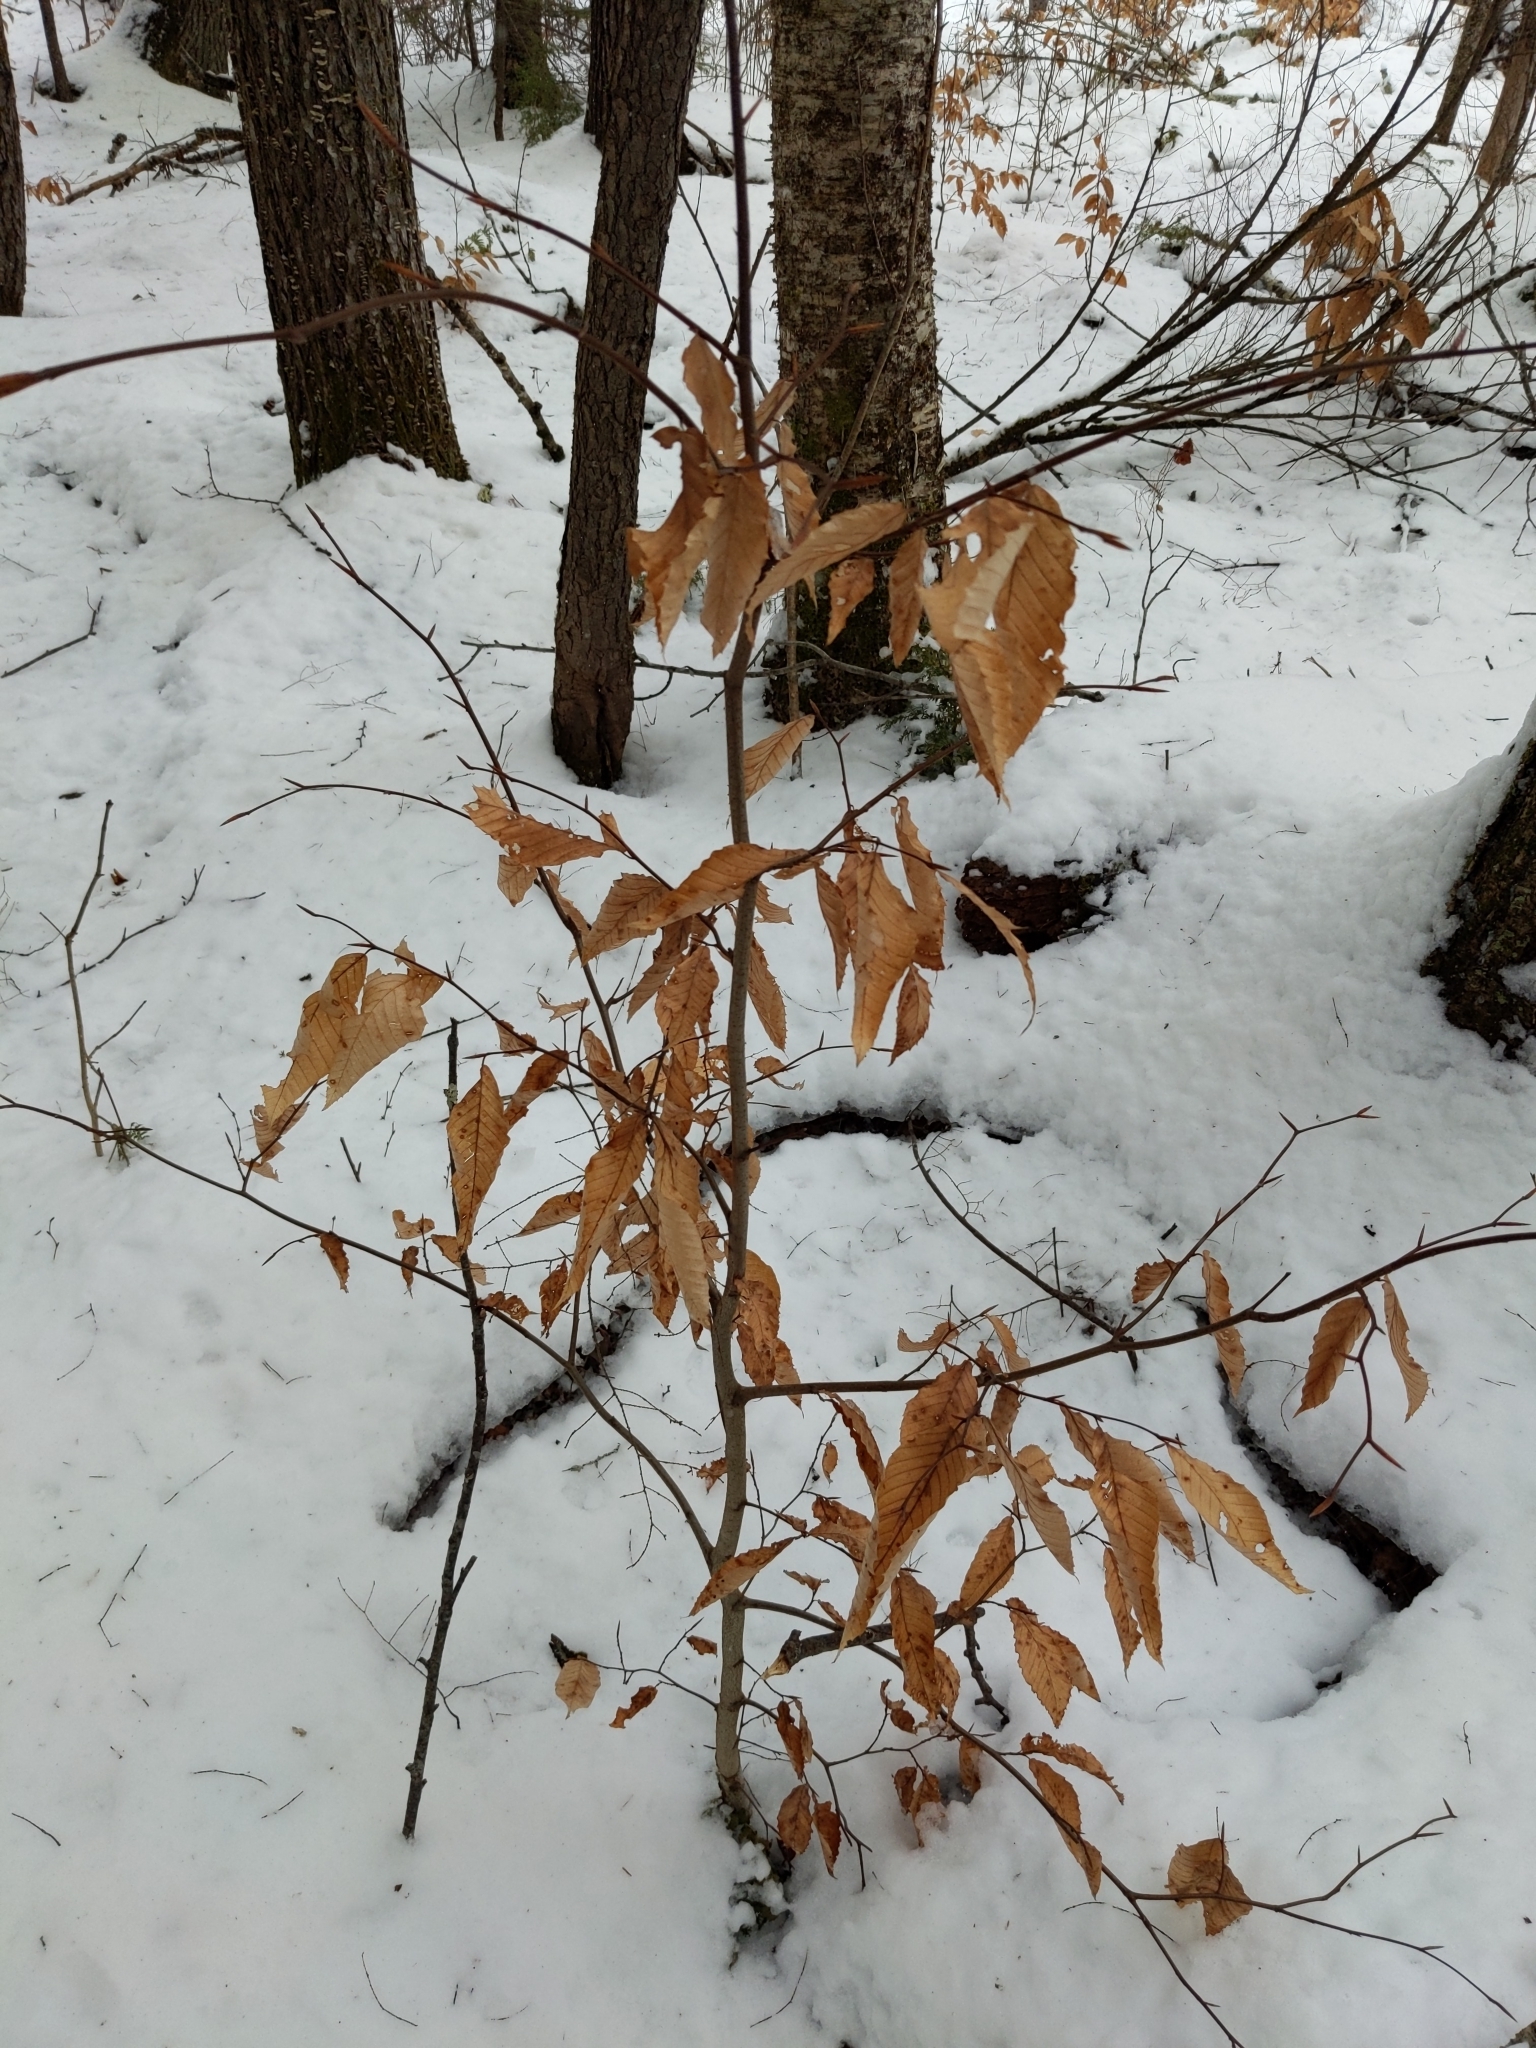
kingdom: Plantae
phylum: Tracheophyta
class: Magnoliopsida
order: Fagales
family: Fagaceae
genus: Fagus
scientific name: Fagus grandifolia
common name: American beech
